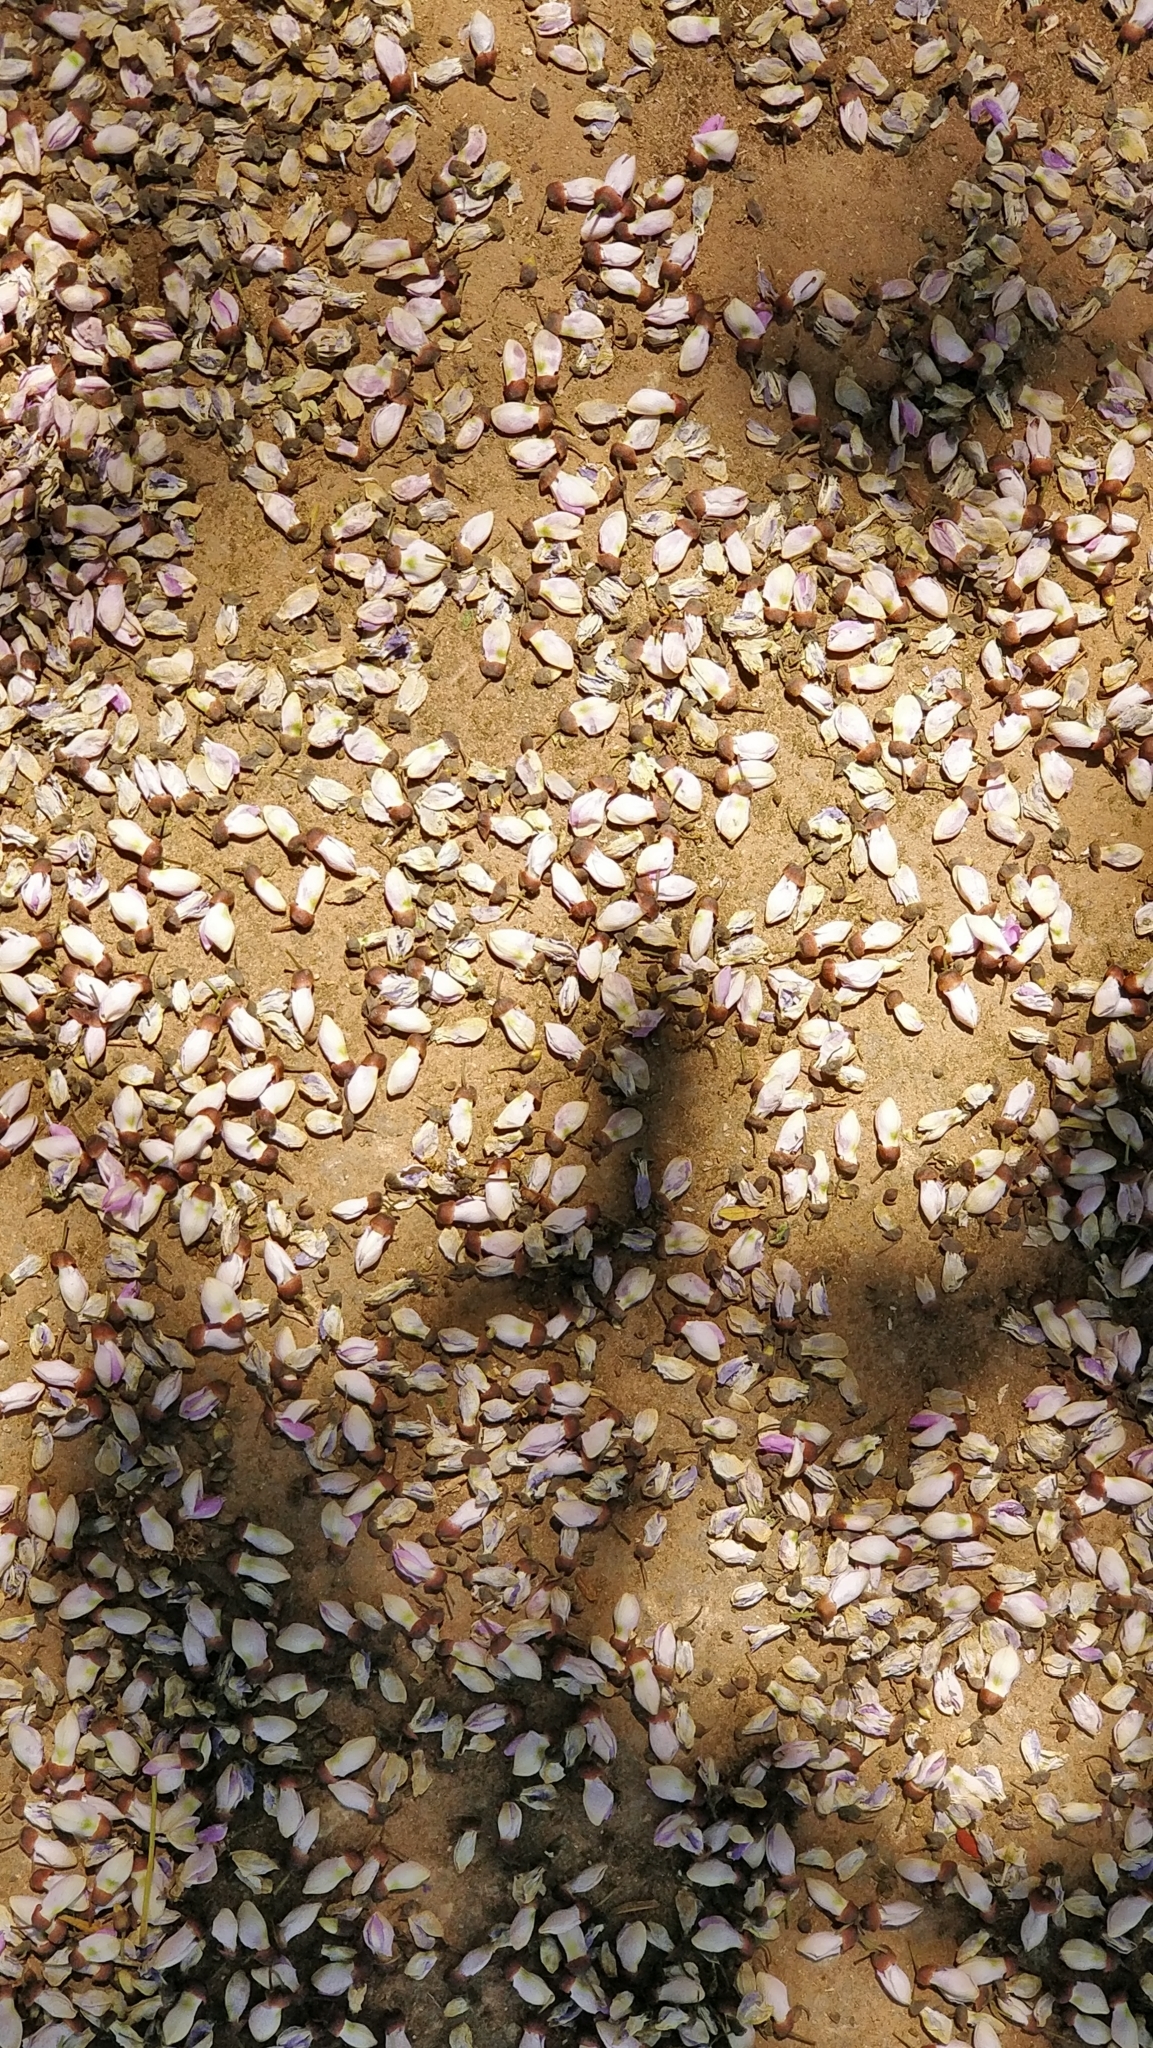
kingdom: Plantae
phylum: Tracheophyta
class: Magnoliopsida
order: Fabales
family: Fabaceae
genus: Pongamia
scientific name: Pongamia pinnata
